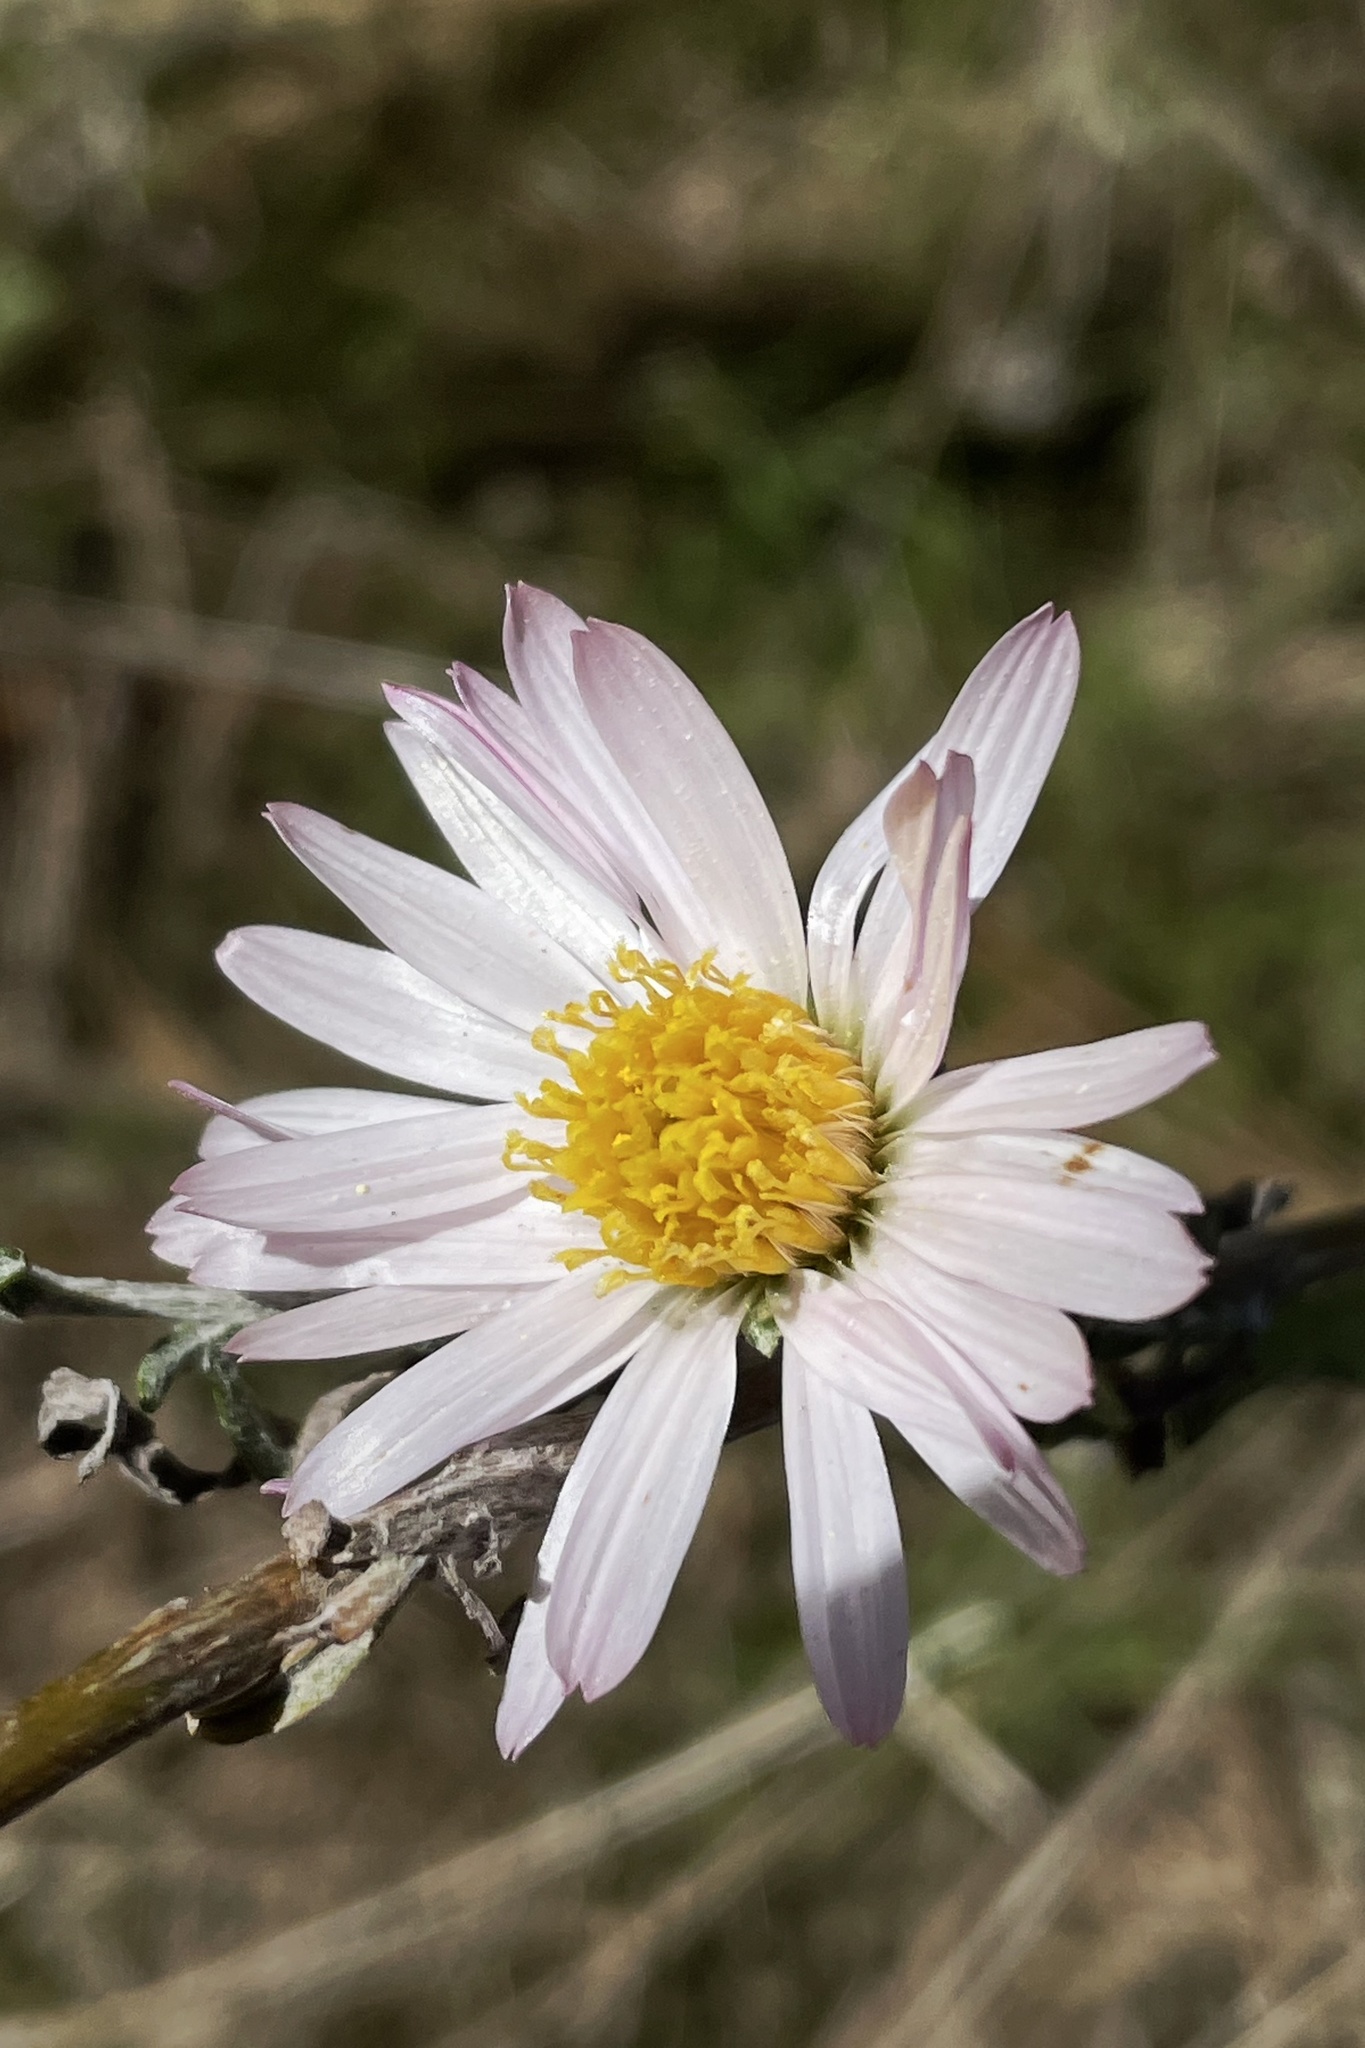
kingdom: Plantae
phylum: Tracheophyta
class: Magnoliopsida
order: Asterales
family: Asteraceae
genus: Corethrogyne
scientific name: Corethrogyne filaginifolia
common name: Sand-aster
